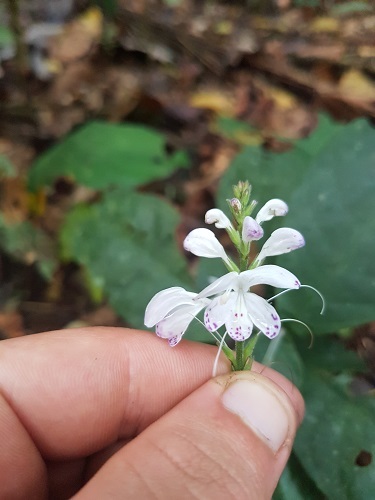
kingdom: Plantae
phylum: Tracheophyta
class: Magnoliopsida
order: Lamiales
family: Acanthaceae
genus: Pulchranthus
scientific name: Pulchranthus adenostachyus
